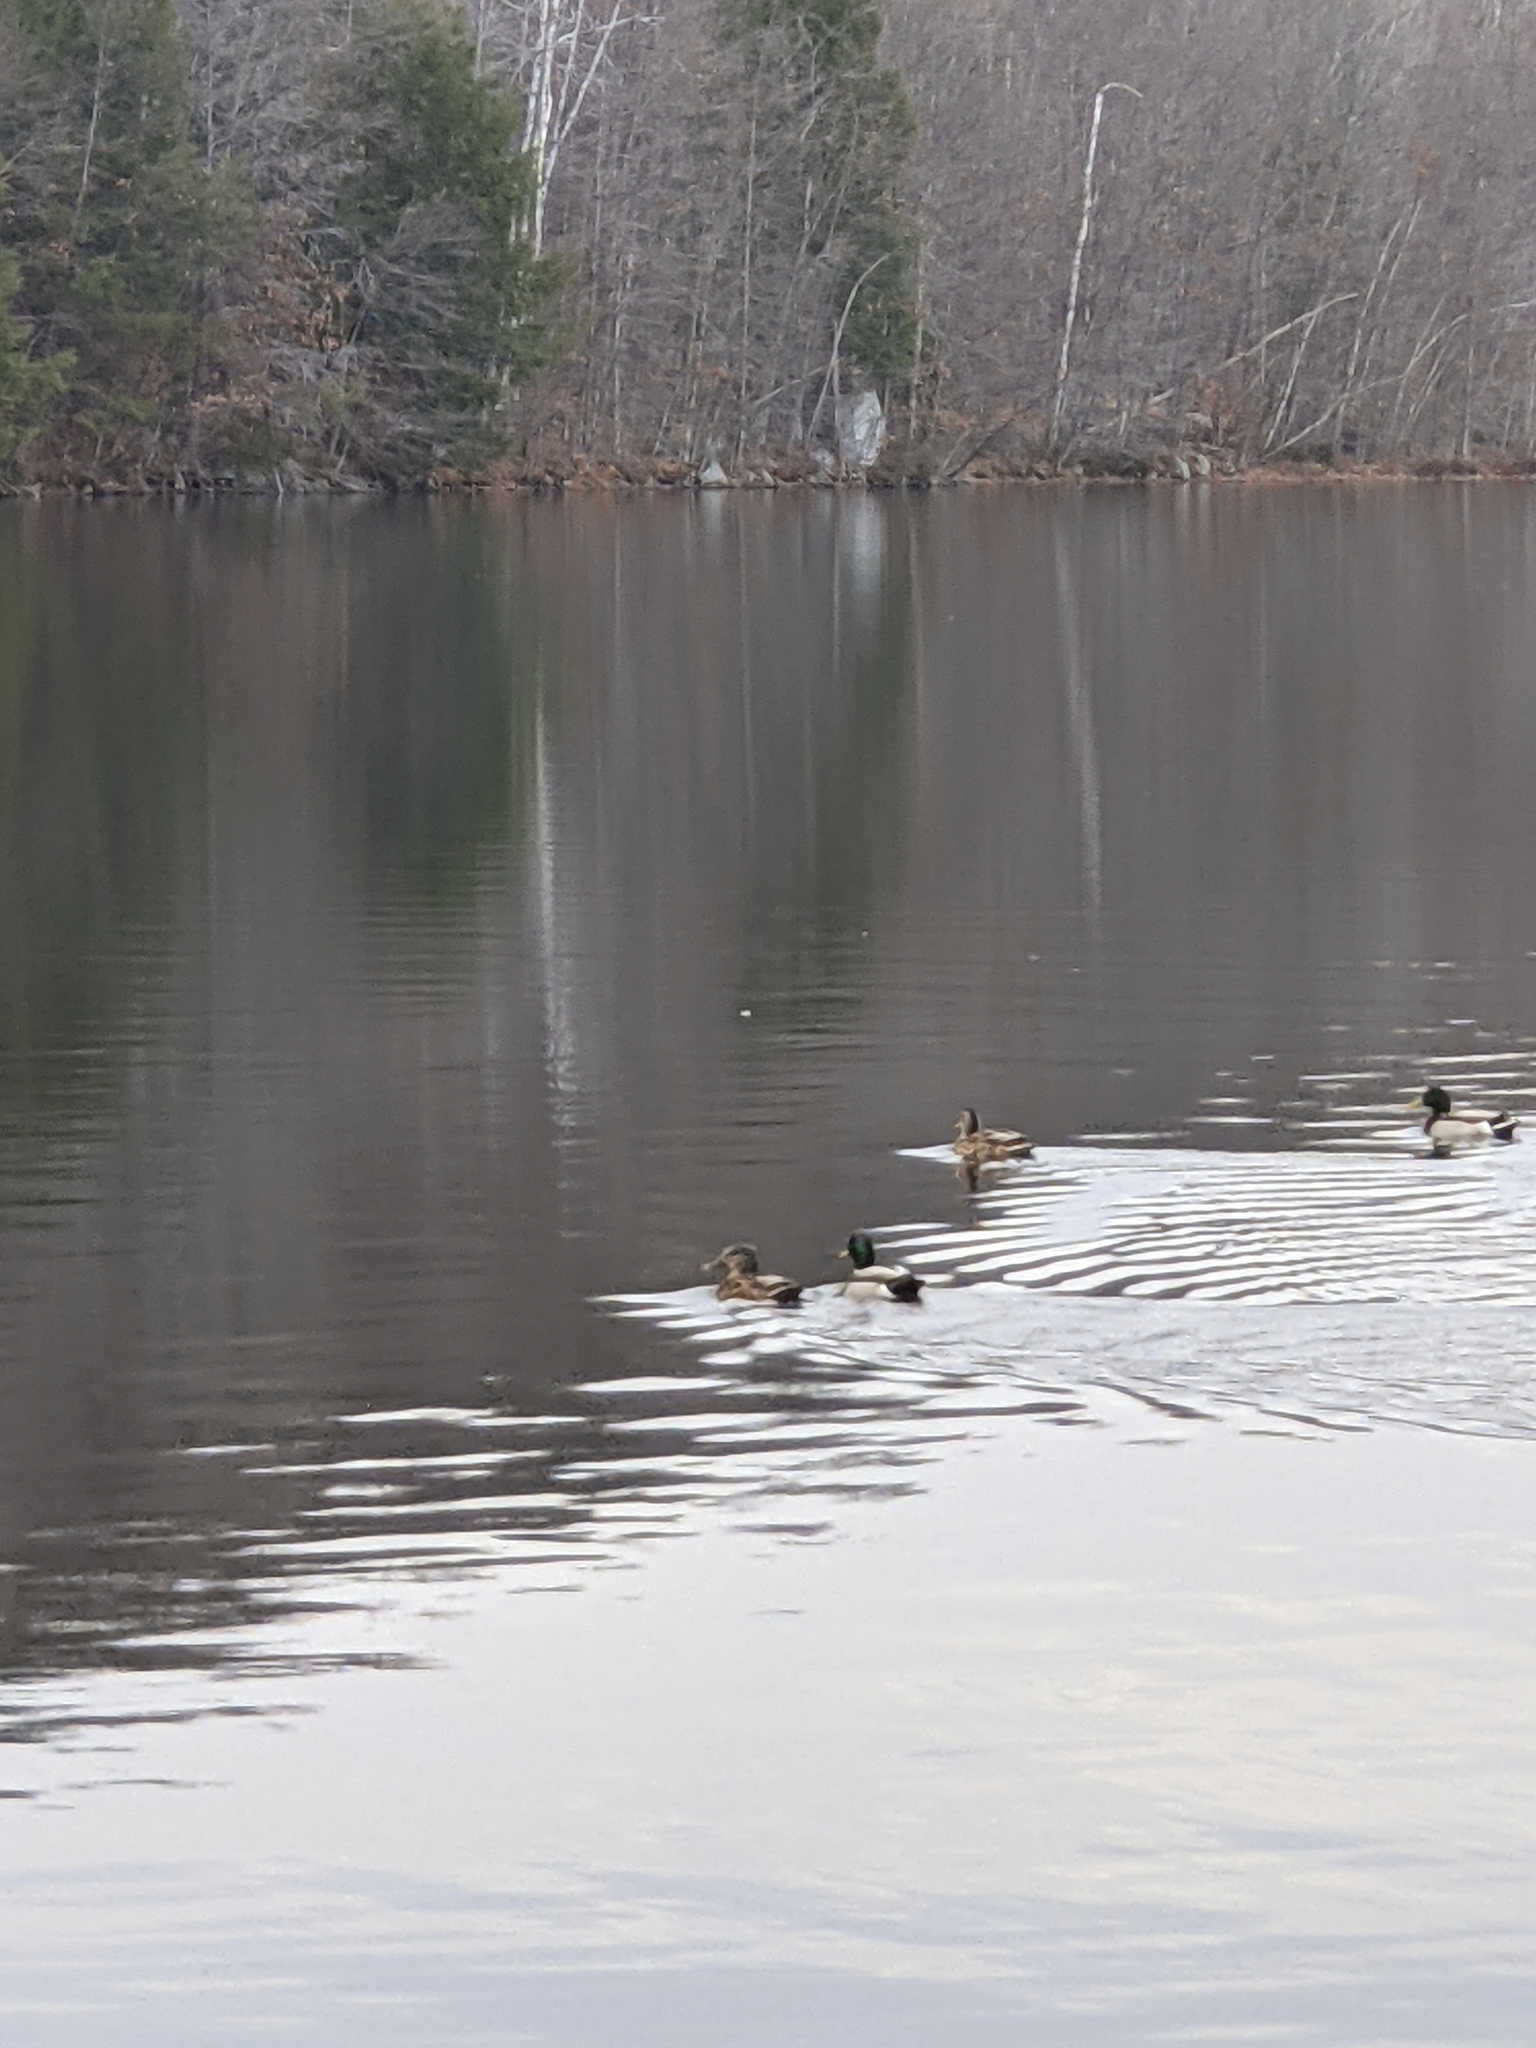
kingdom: Animalia
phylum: Chordata
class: Aves
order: Anseriformes
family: Anatidae
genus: Anas
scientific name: Anas platyrhynchos
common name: Mallard
